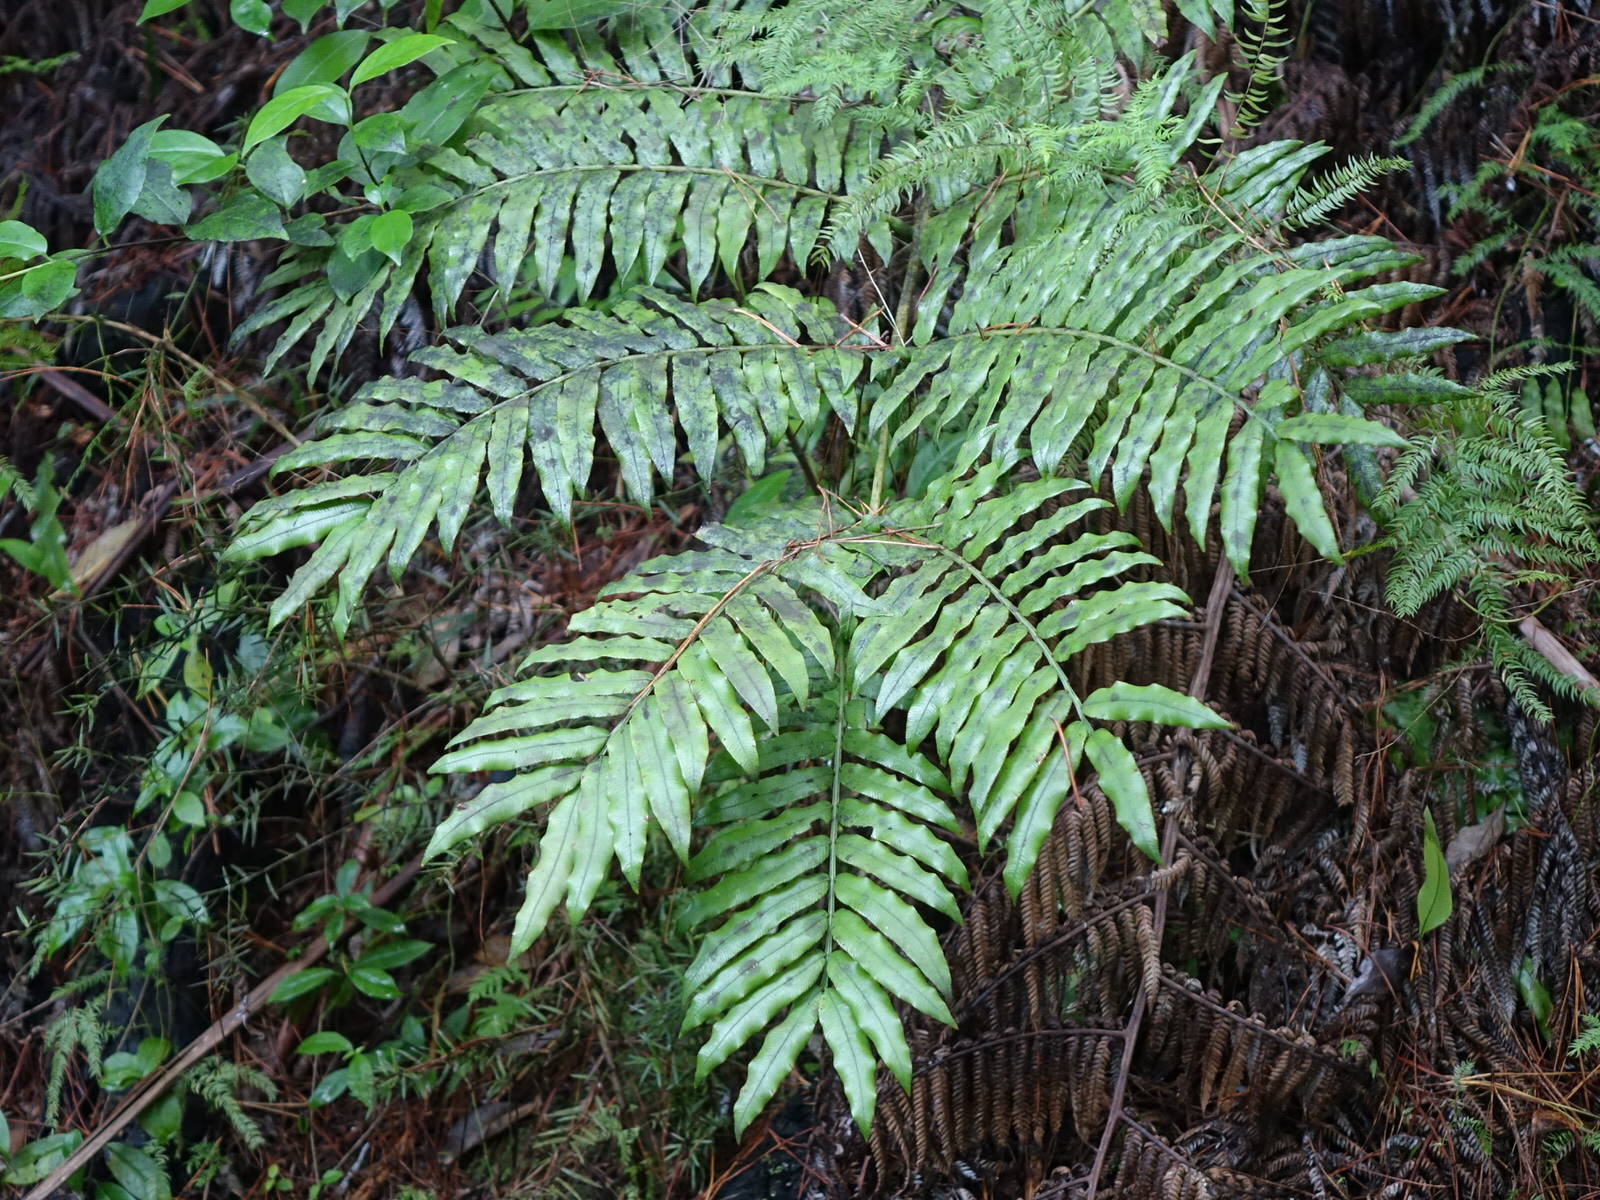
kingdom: Plantae
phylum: Tracheophyta
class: Polypodiopsida
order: Marattiales
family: Marattiaceae
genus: Ptisana
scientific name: Ptisana salicina
